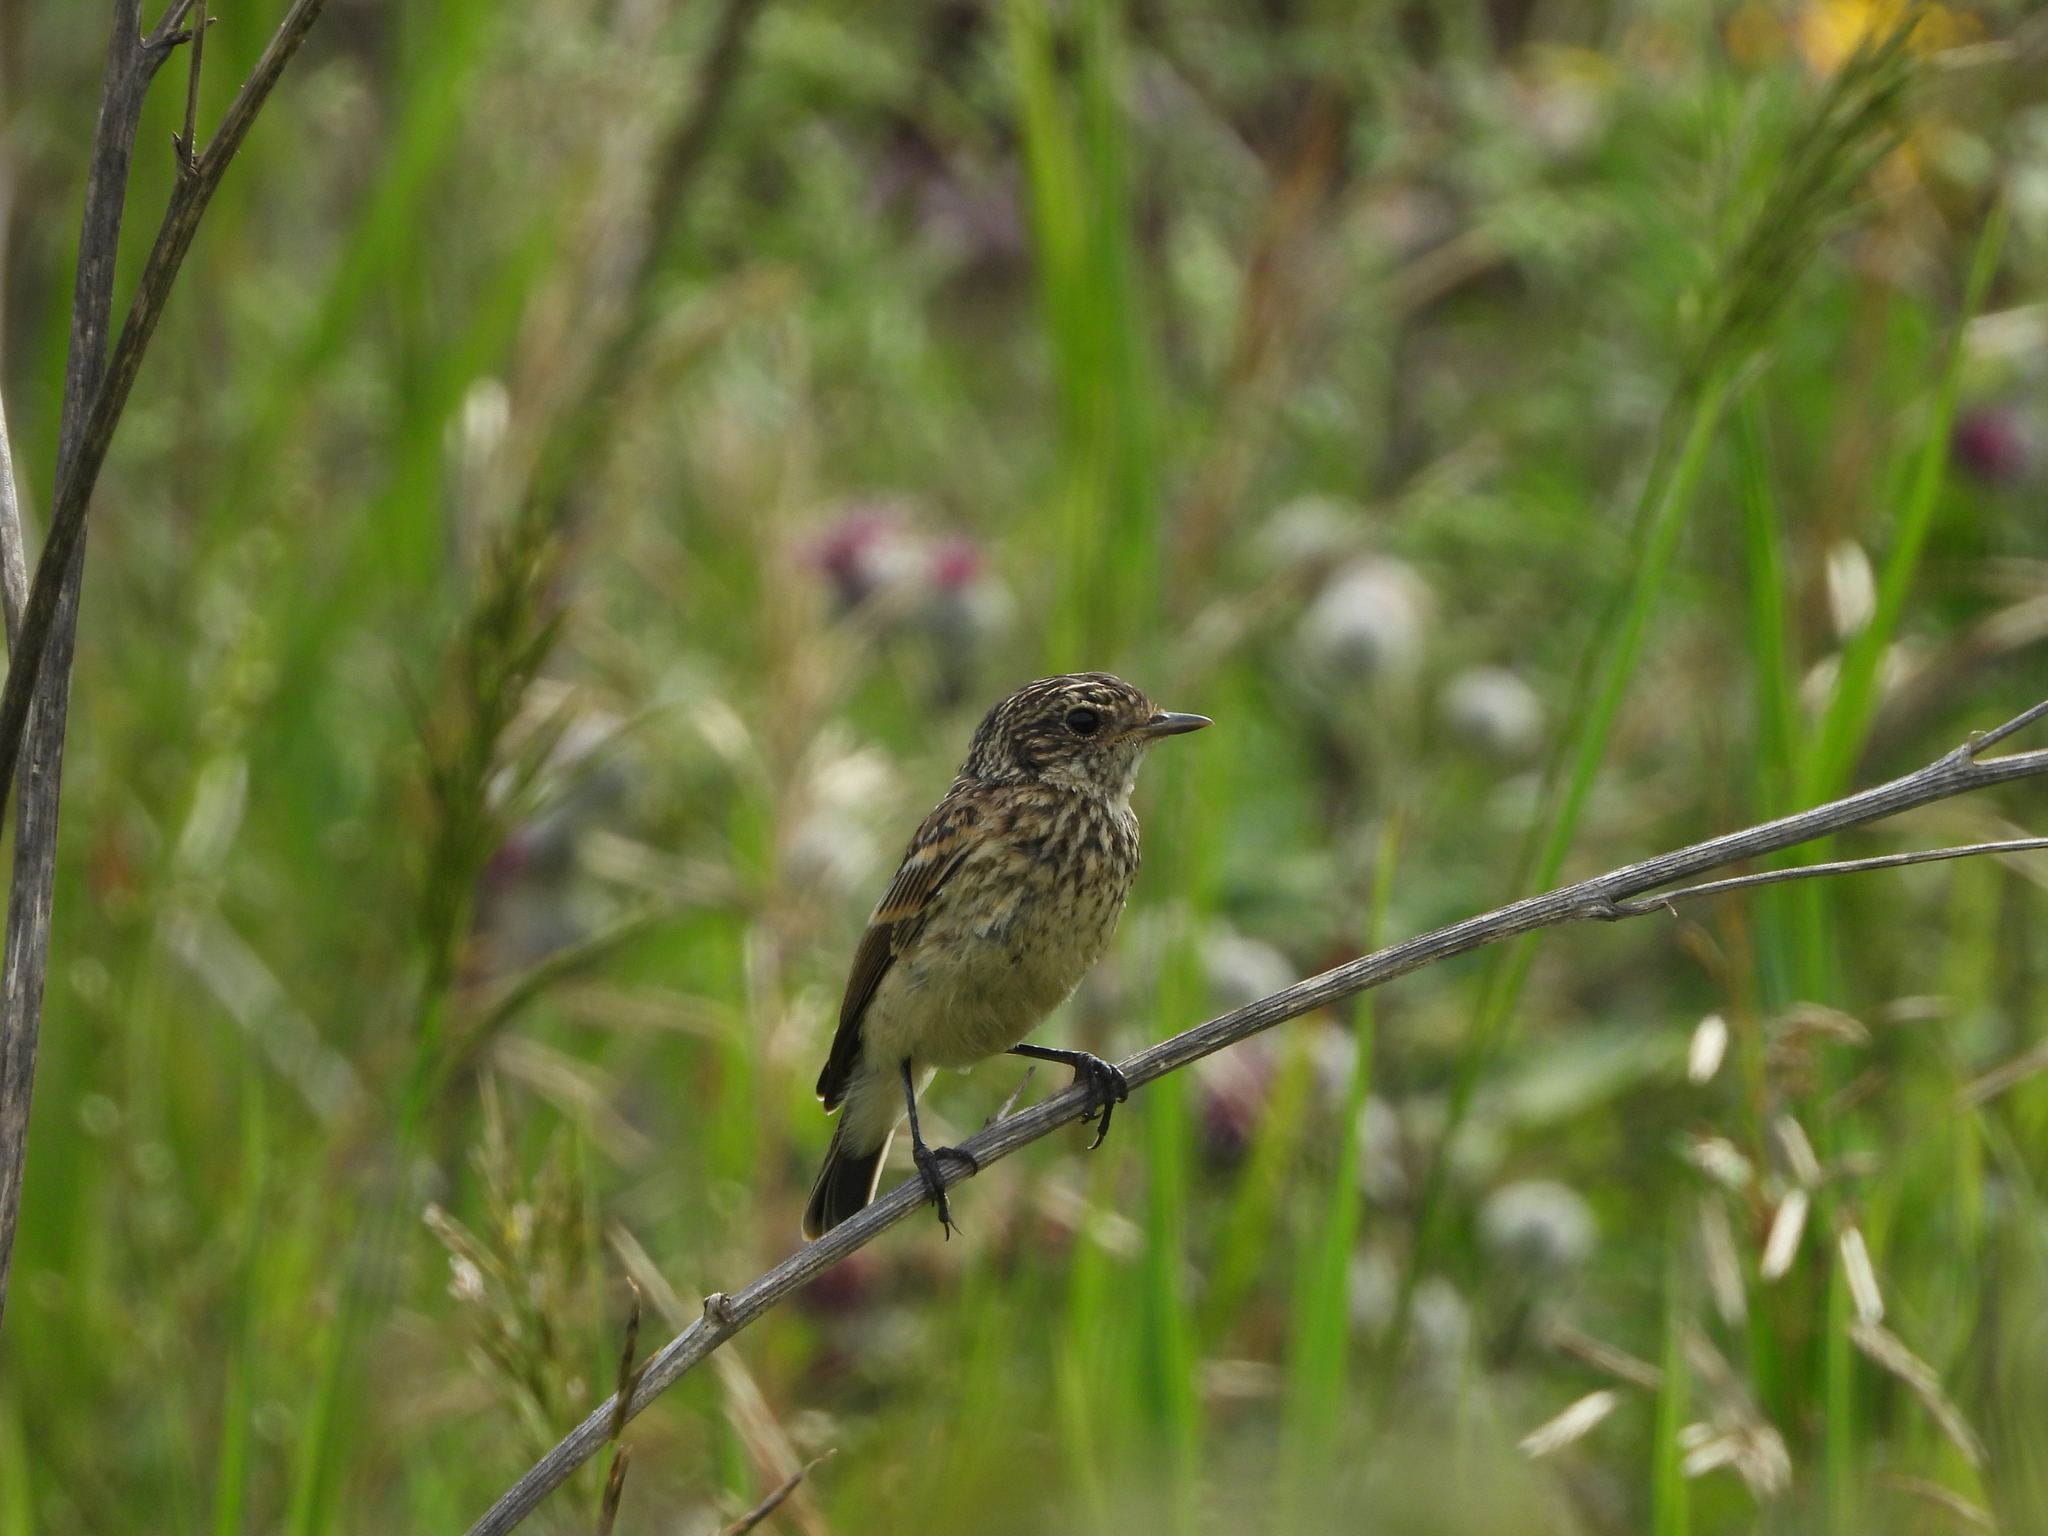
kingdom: Animalia
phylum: Chordata
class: Aves
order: Passeriformes
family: Muscicapidae
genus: Saxicola
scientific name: Saxicola maurus
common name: Siberian stonechat
